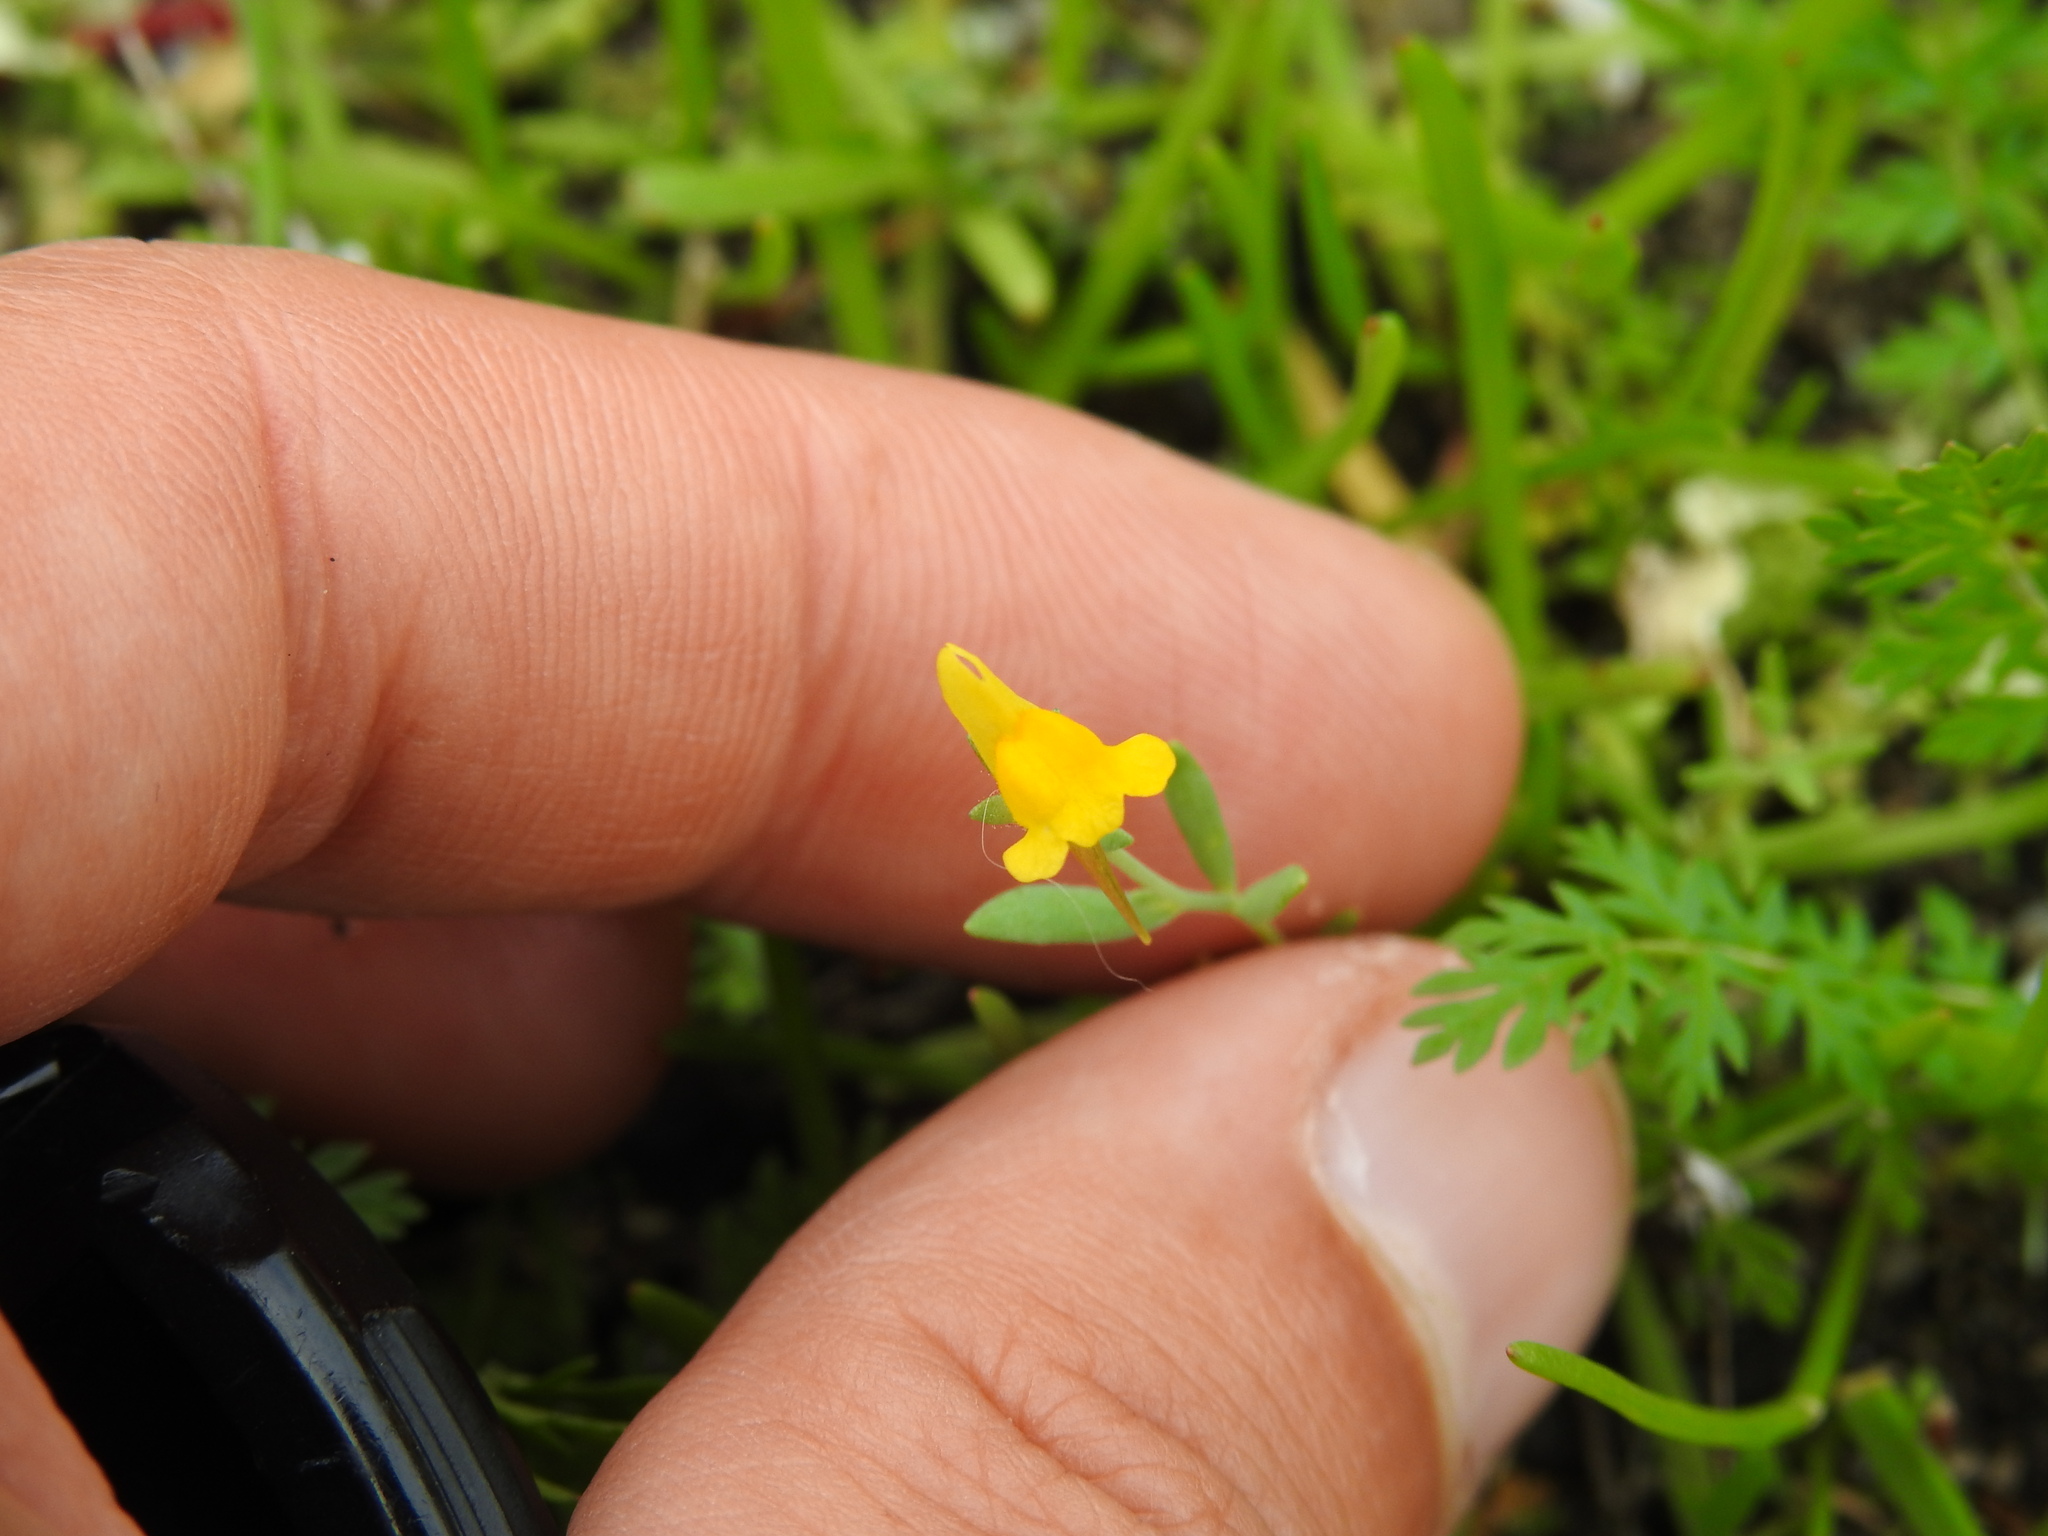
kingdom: Plantae
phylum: Tracheophyta
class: Magnoliopsida
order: Lamiales
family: Plantaginaceae
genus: Linaria
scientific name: Linaria munbyana
